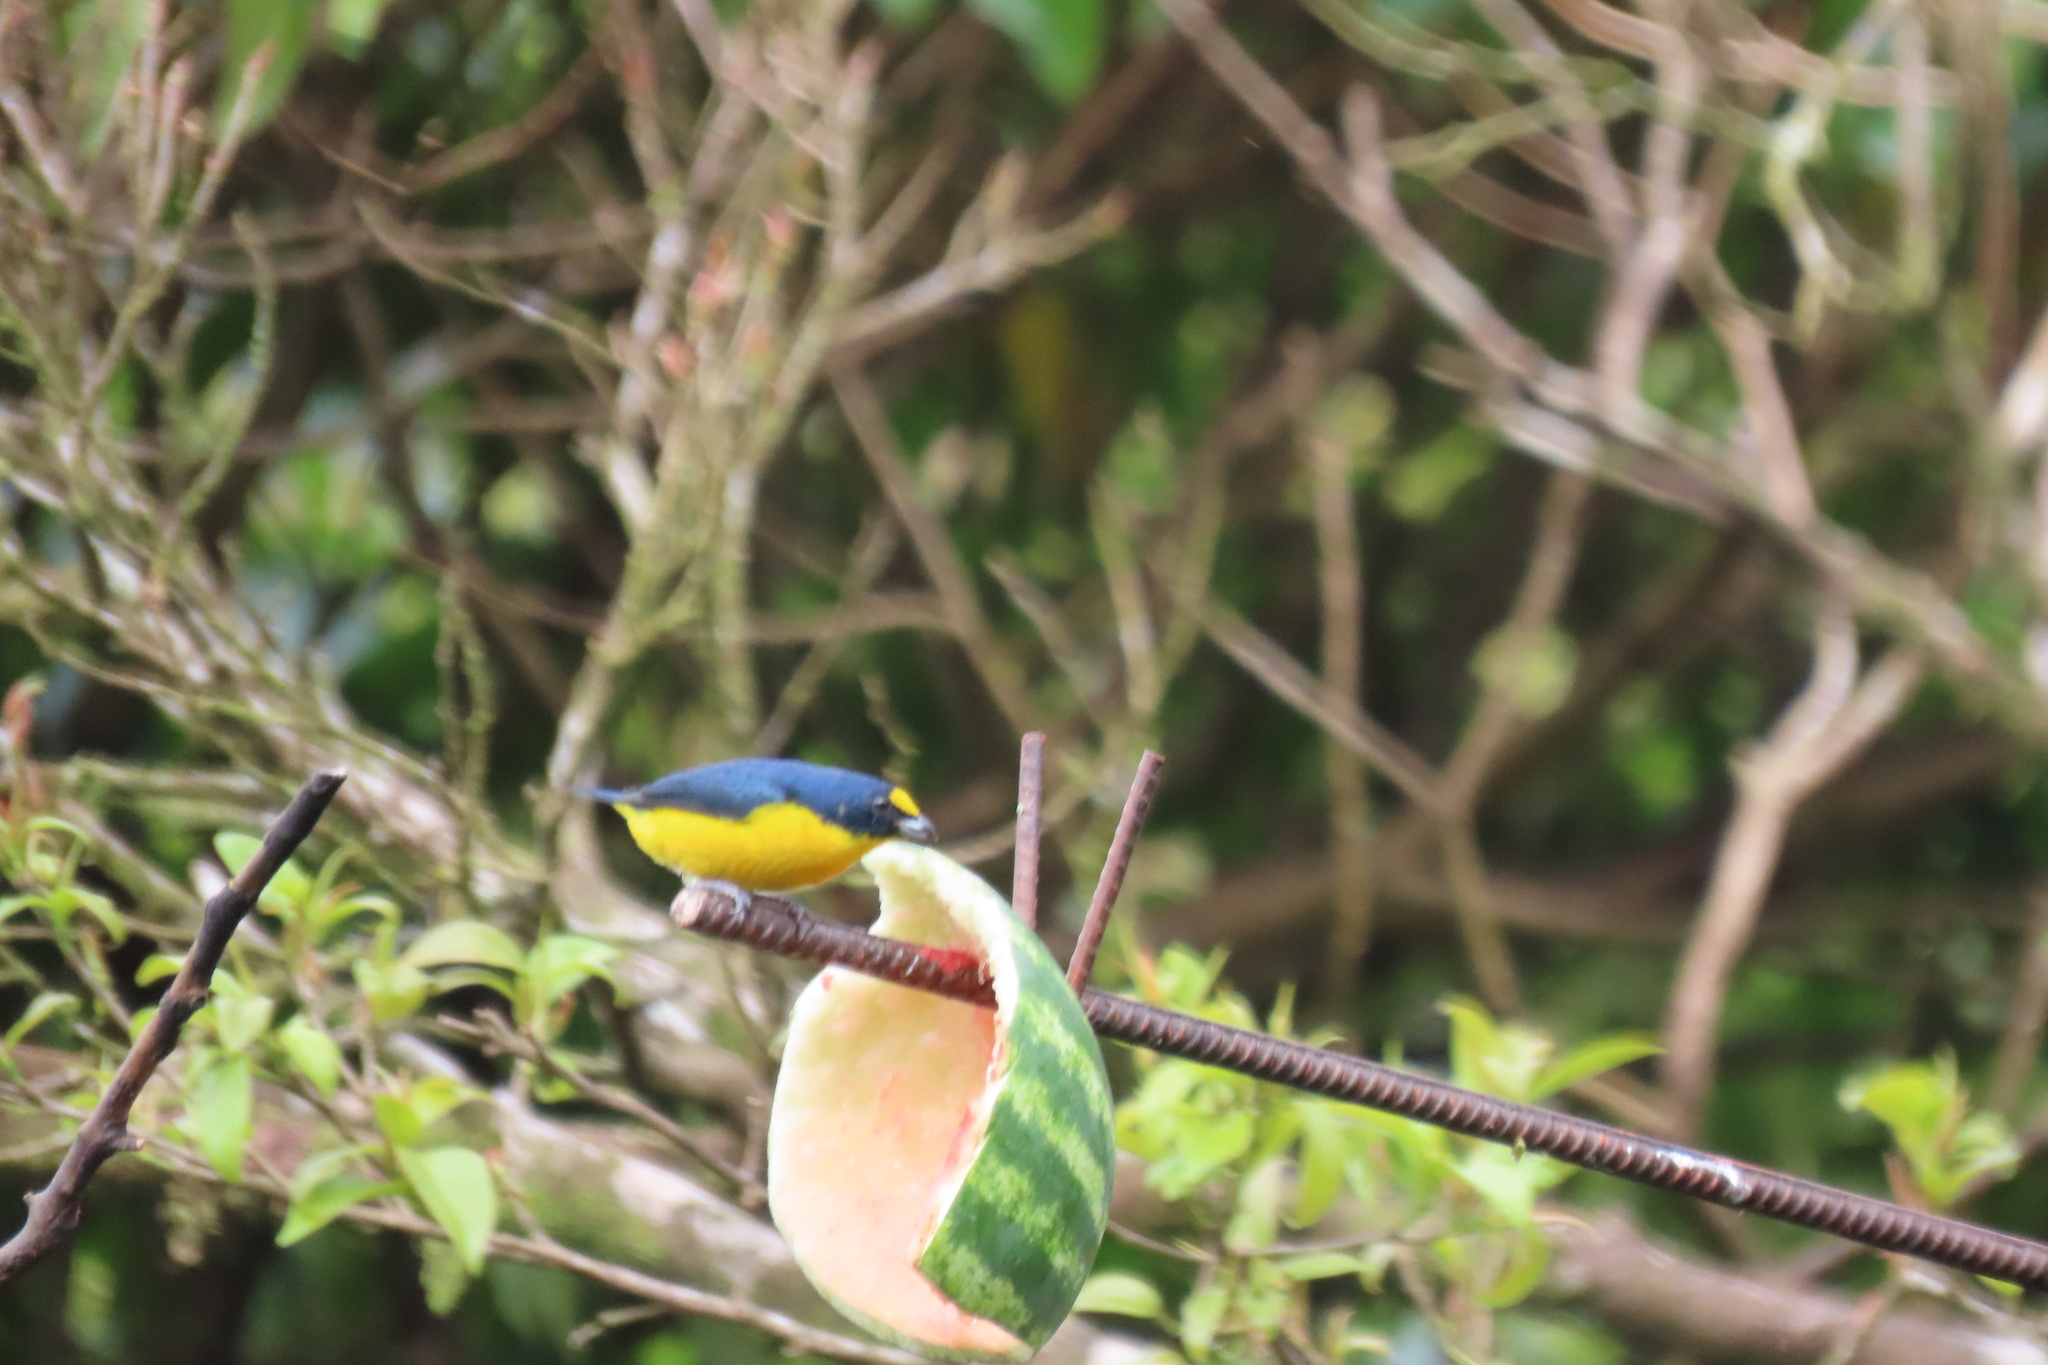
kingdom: Animalia
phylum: Chordata
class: Aves
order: Passeriformes
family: Fringillidae
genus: Euphonia
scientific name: Euphonia hirundinacea
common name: Yellow-throated euphonia
